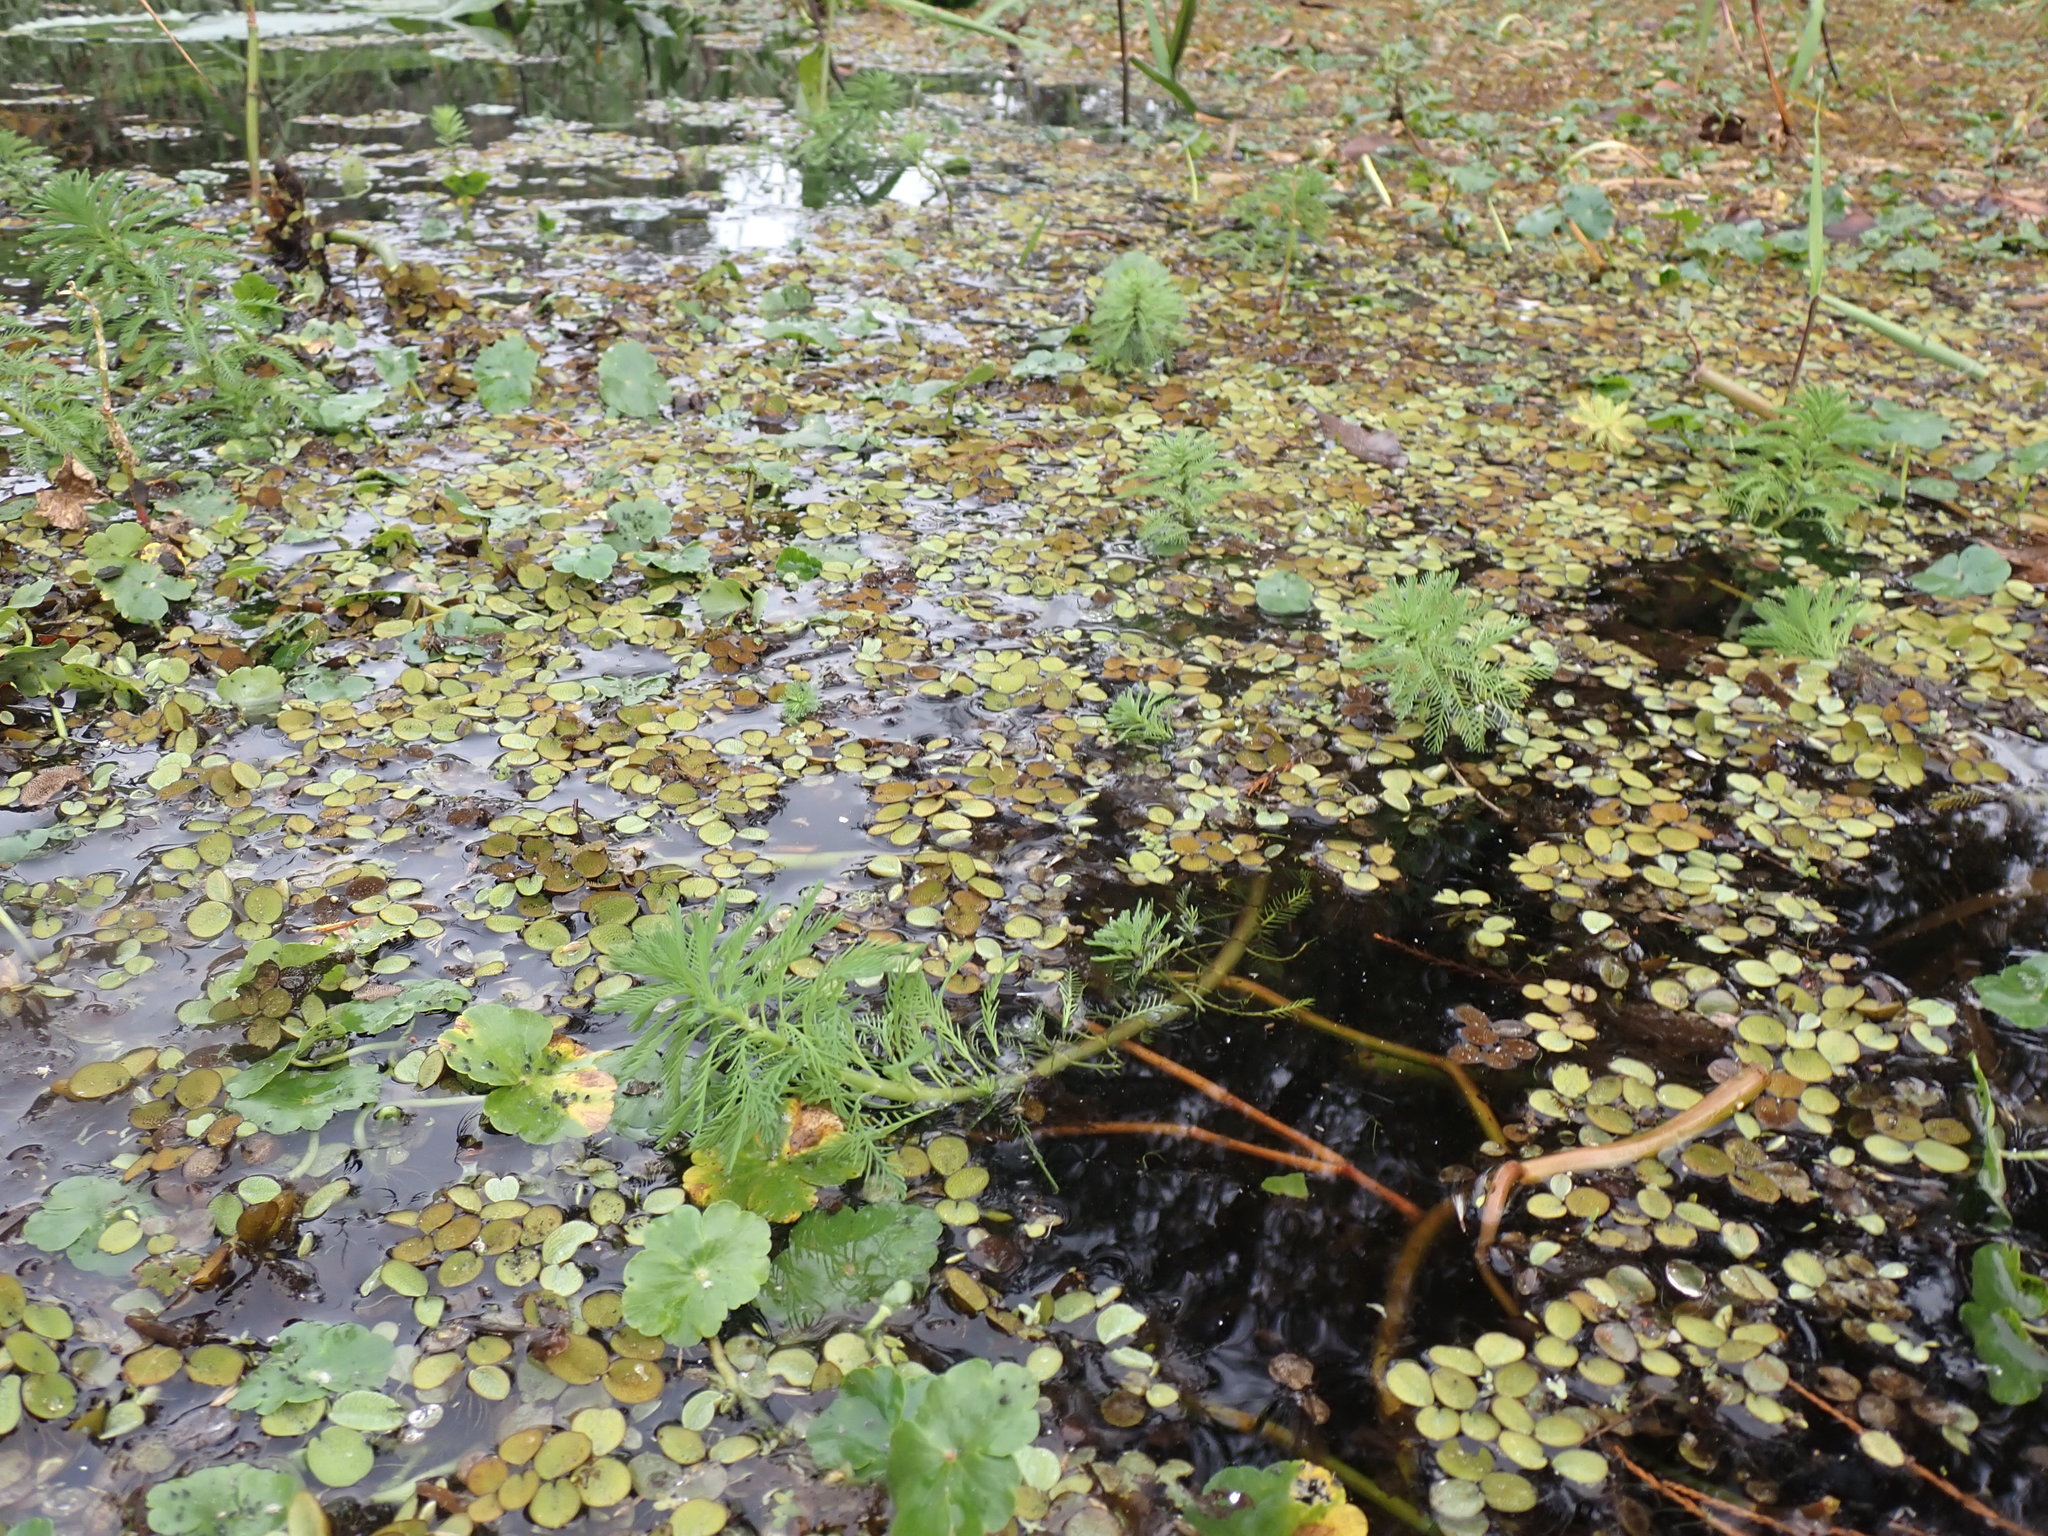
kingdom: Plantae
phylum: Tracheophyta
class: Magnoliopsida
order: Saxifragales
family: Haloragaceae
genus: Myriophyllum
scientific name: Myriophyllum aquaticum
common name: Parrot's feather
